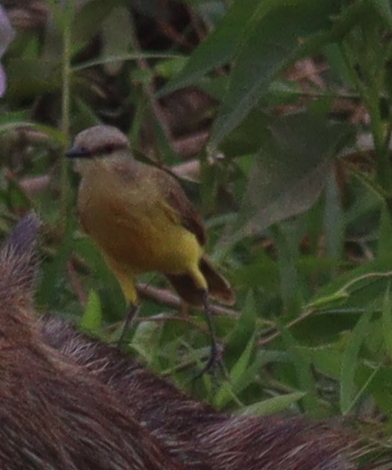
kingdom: Animalia
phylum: Chordata
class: Aves
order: Passeriformes
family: Tyrannidae
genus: Machetornis
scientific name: Machetornis rixosa
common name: Cattle tyrant
